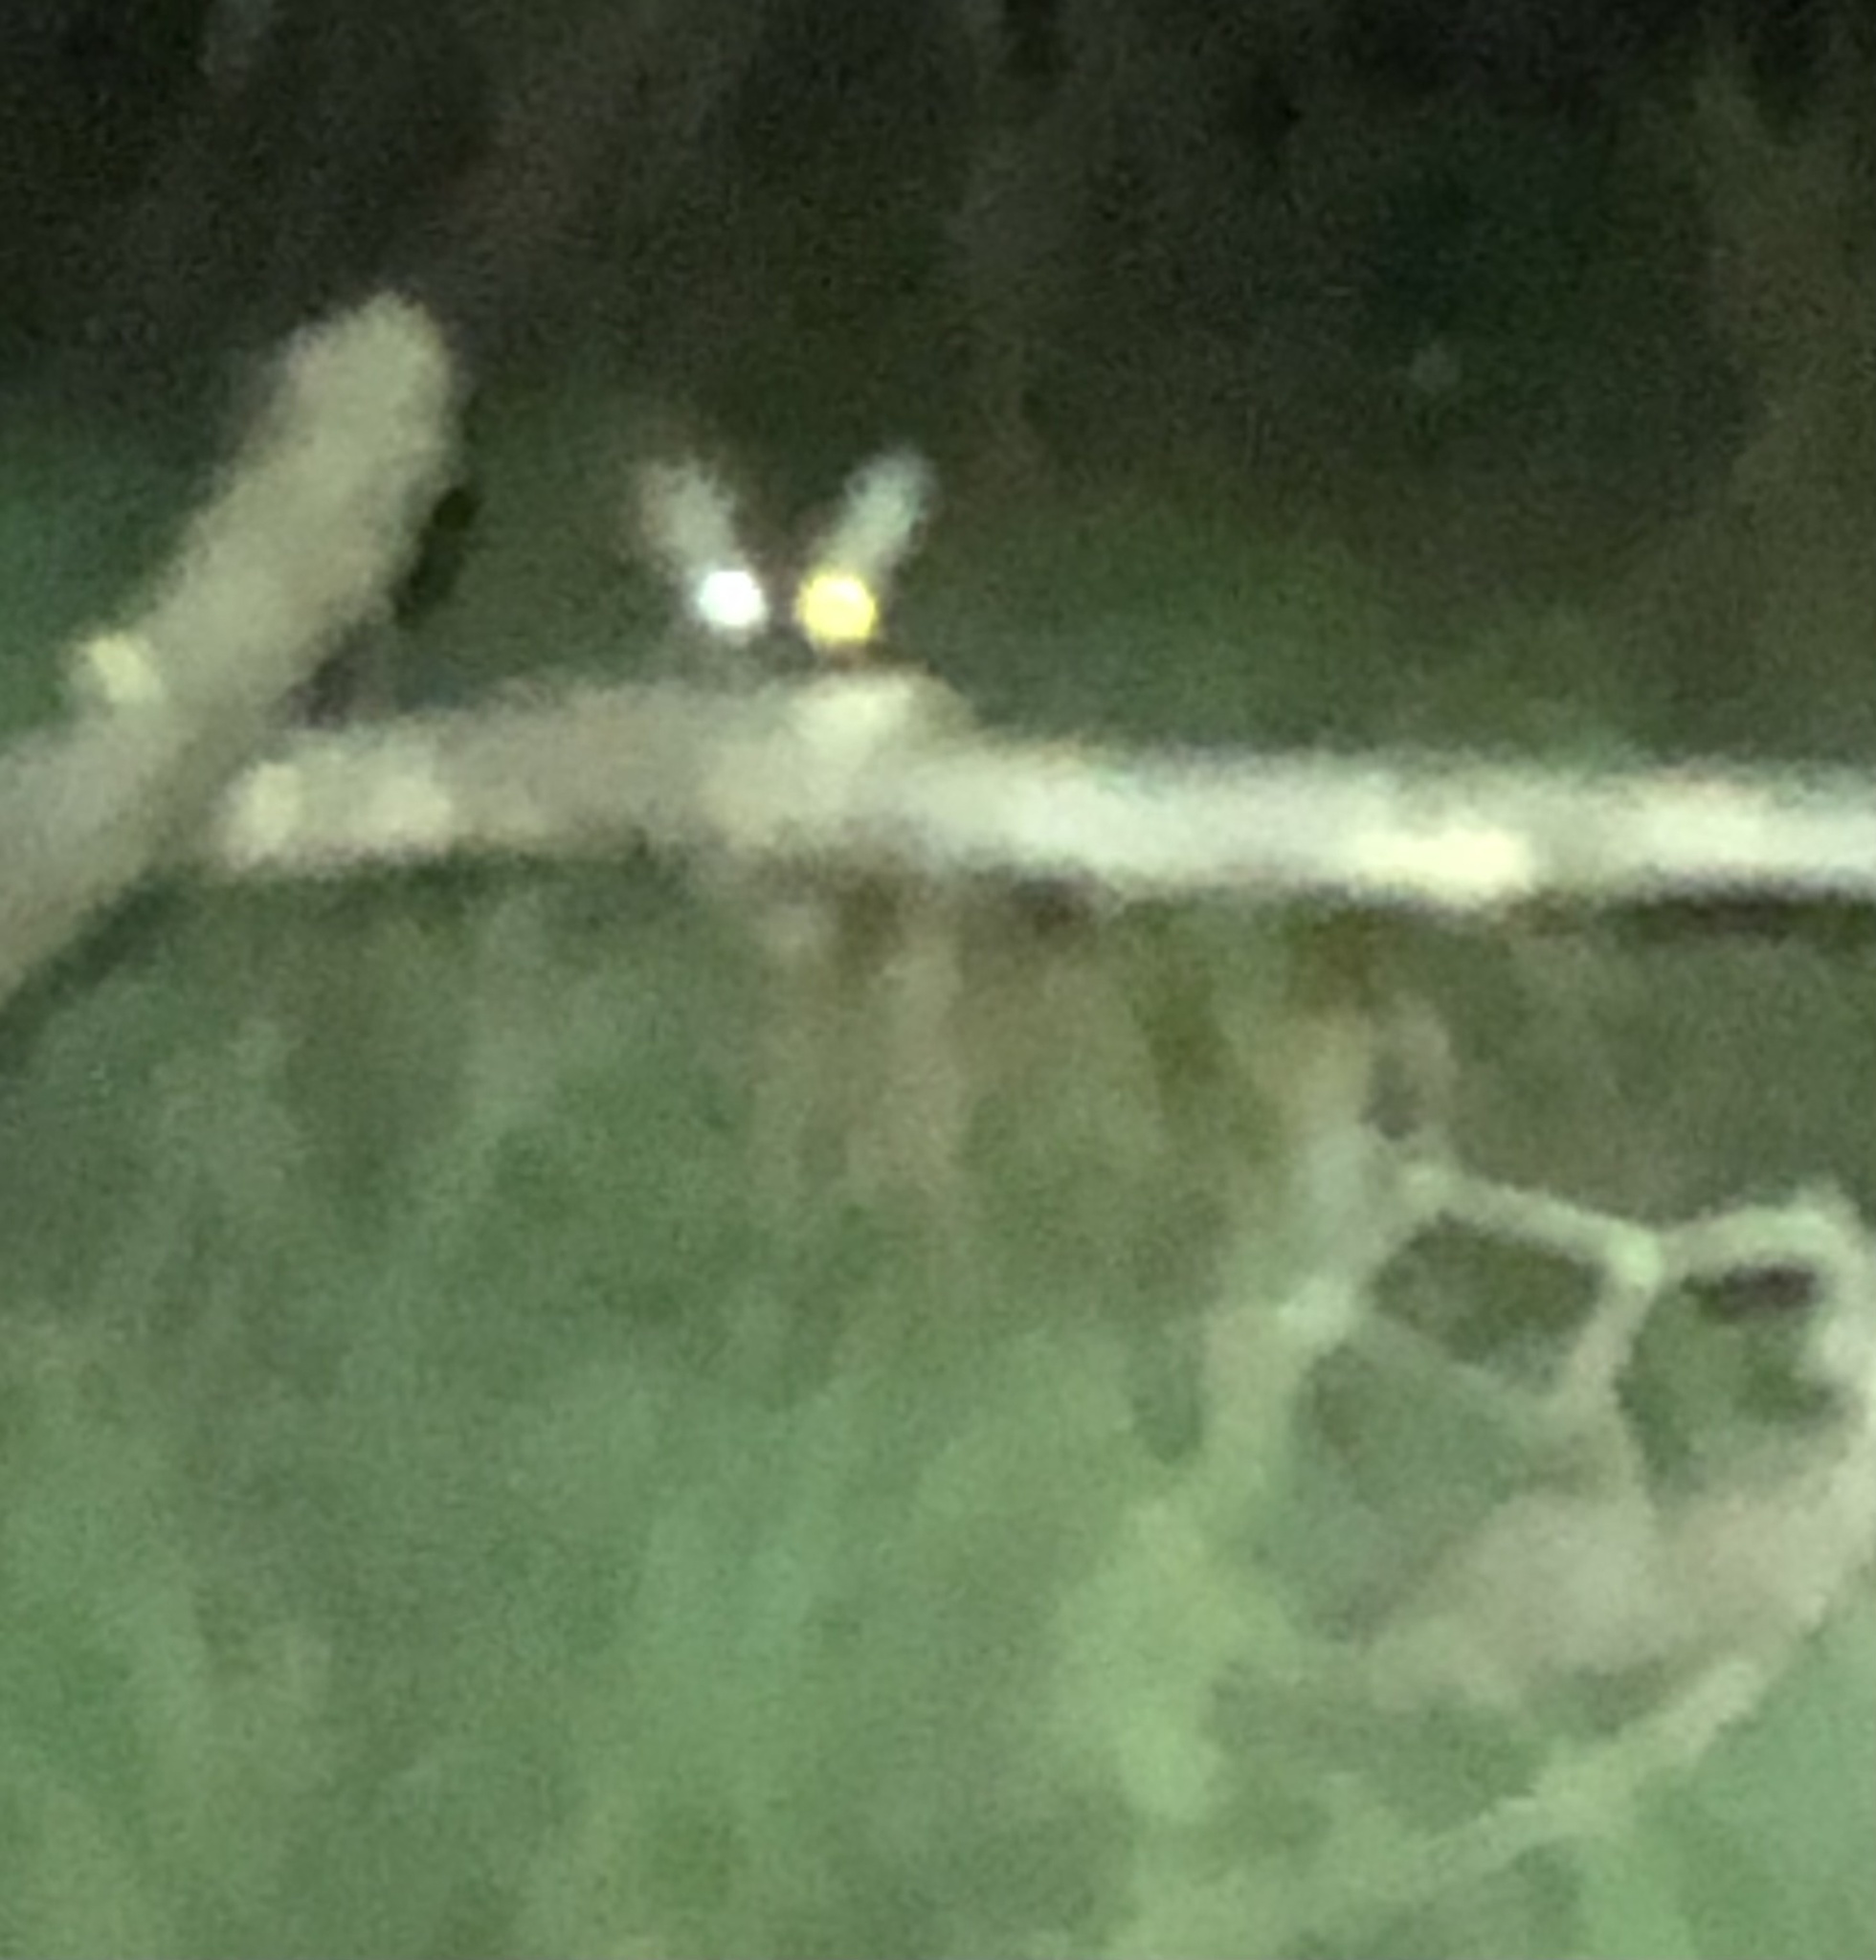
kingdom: Animalia
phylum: Chordata
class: Mammalia
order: Artiodactyla
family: Cervidae
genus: Odocoileus
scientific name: Odocoileus virginianus
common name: White-tailed deer
